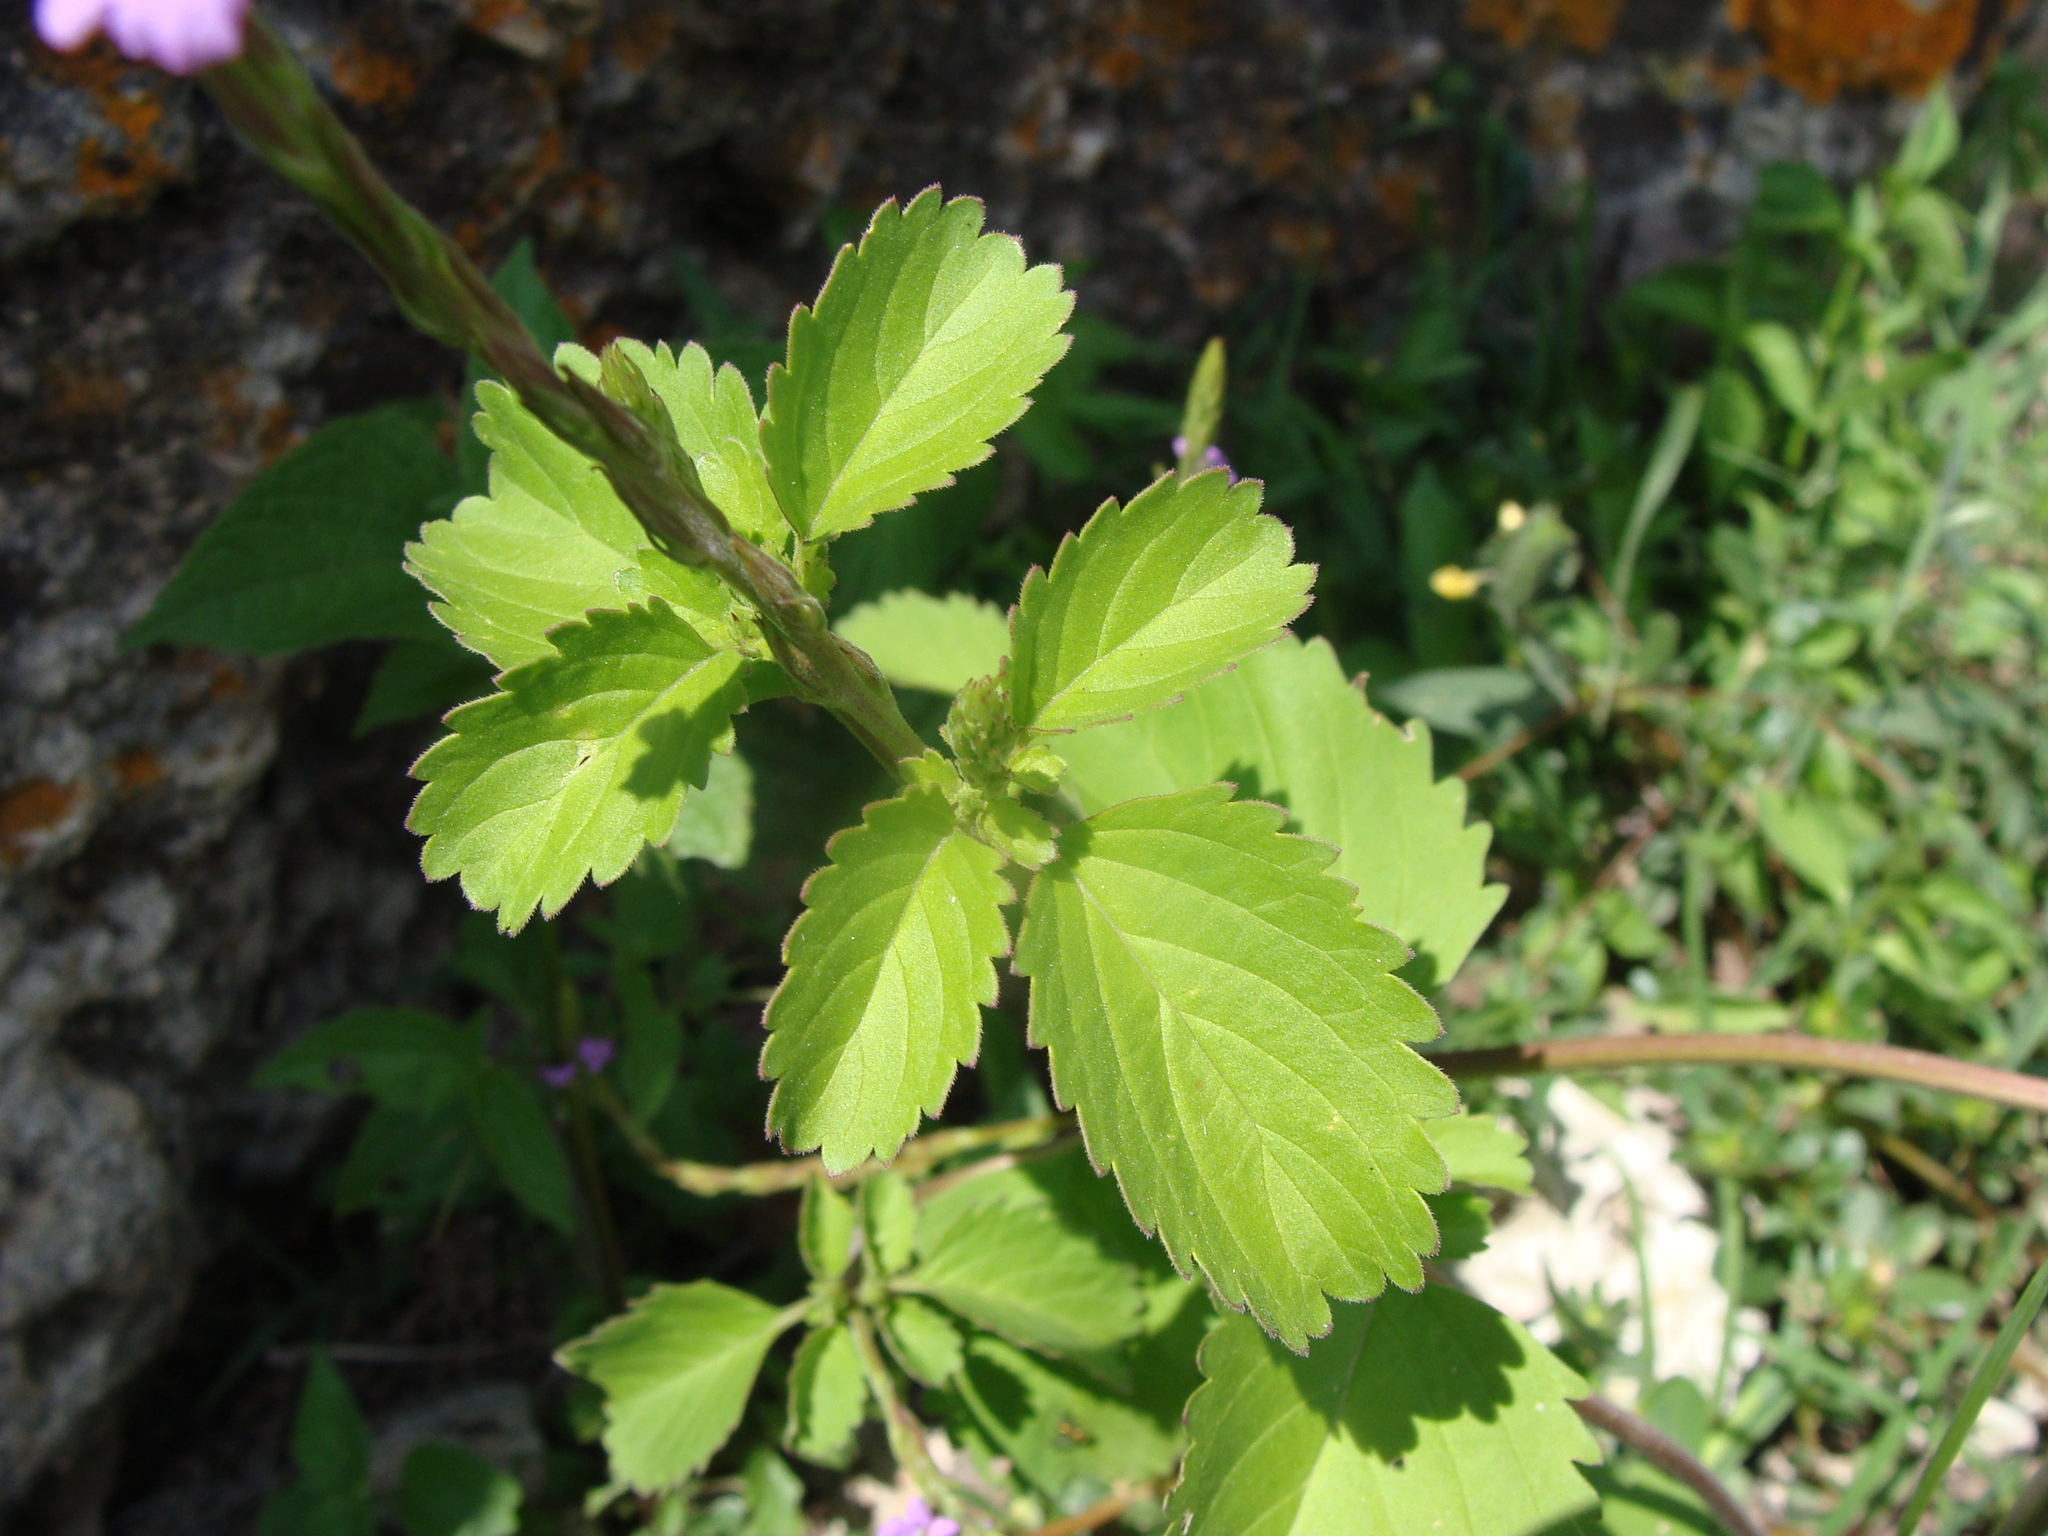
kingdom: Plantae
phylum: Tracheophyta
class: Magnoliopsida
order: Lamiales
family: Verbenaceae
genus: Bouchea
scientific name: Bouchea prismatica
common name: Vervine
